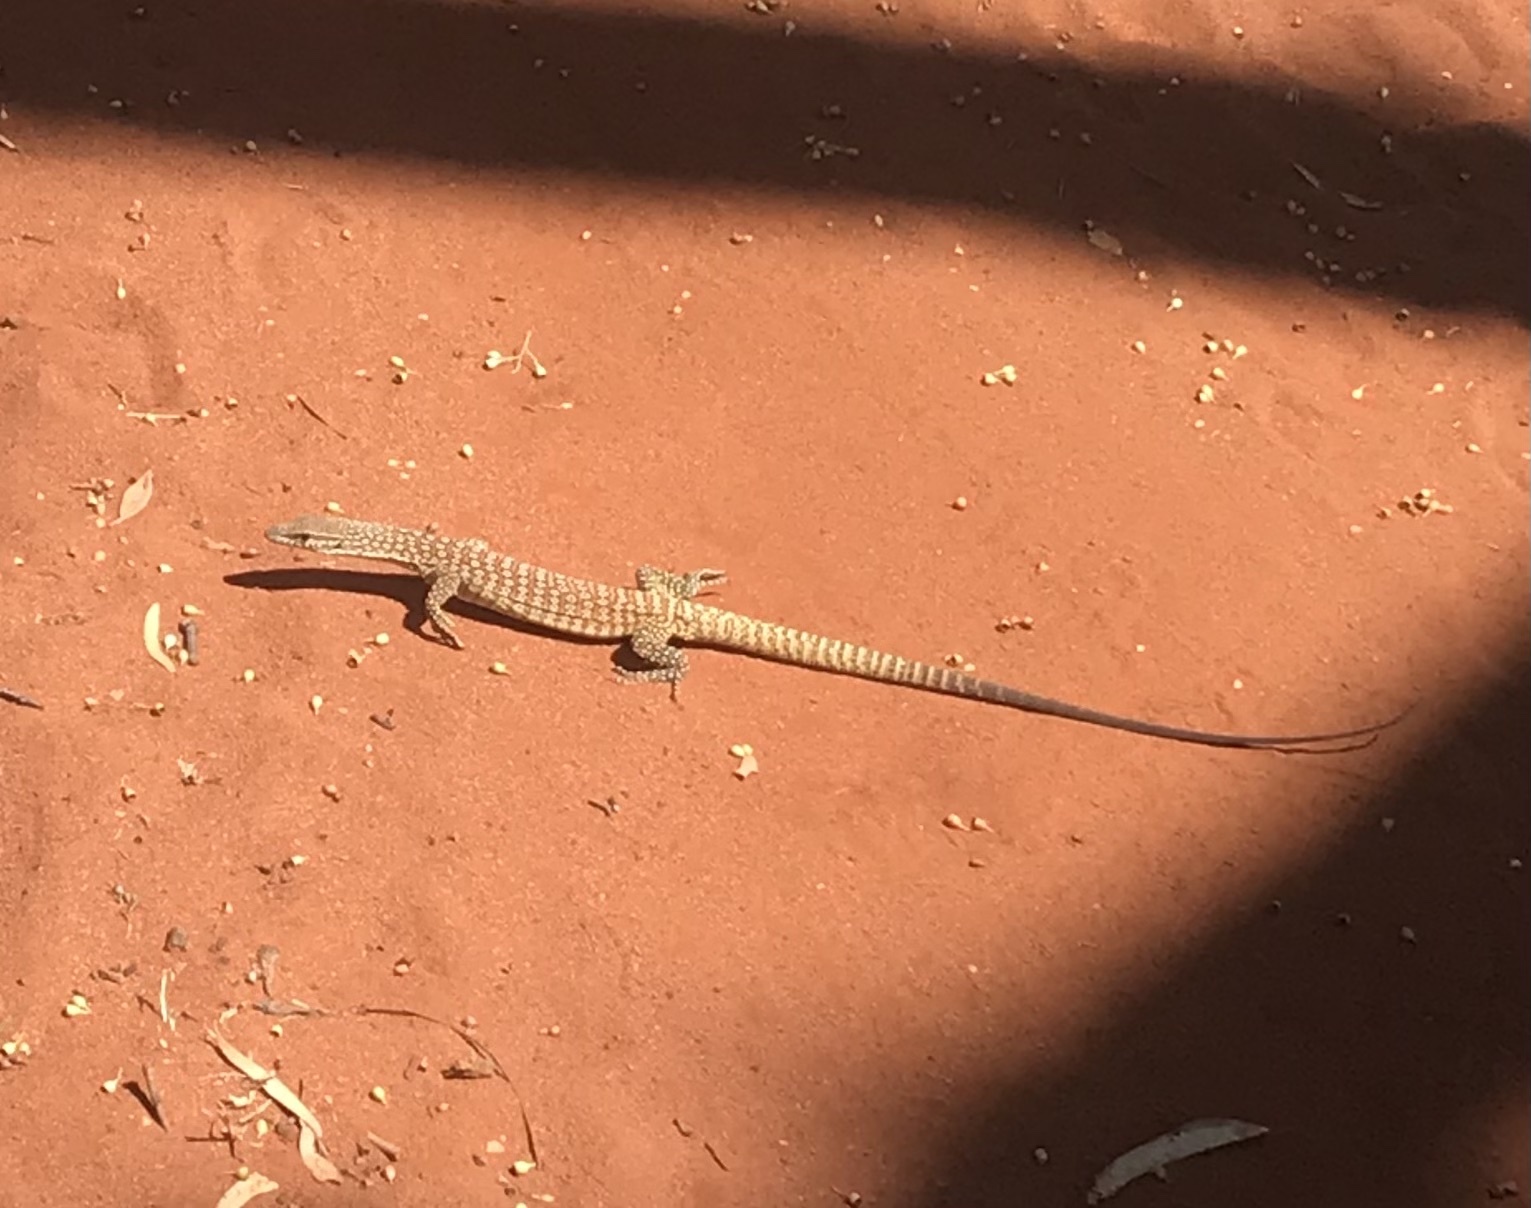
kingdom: Animalia
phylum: Chordata
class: Squamata
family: Varanidae
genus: Varanus
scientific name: Varanus tristis
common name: Arid monitor
